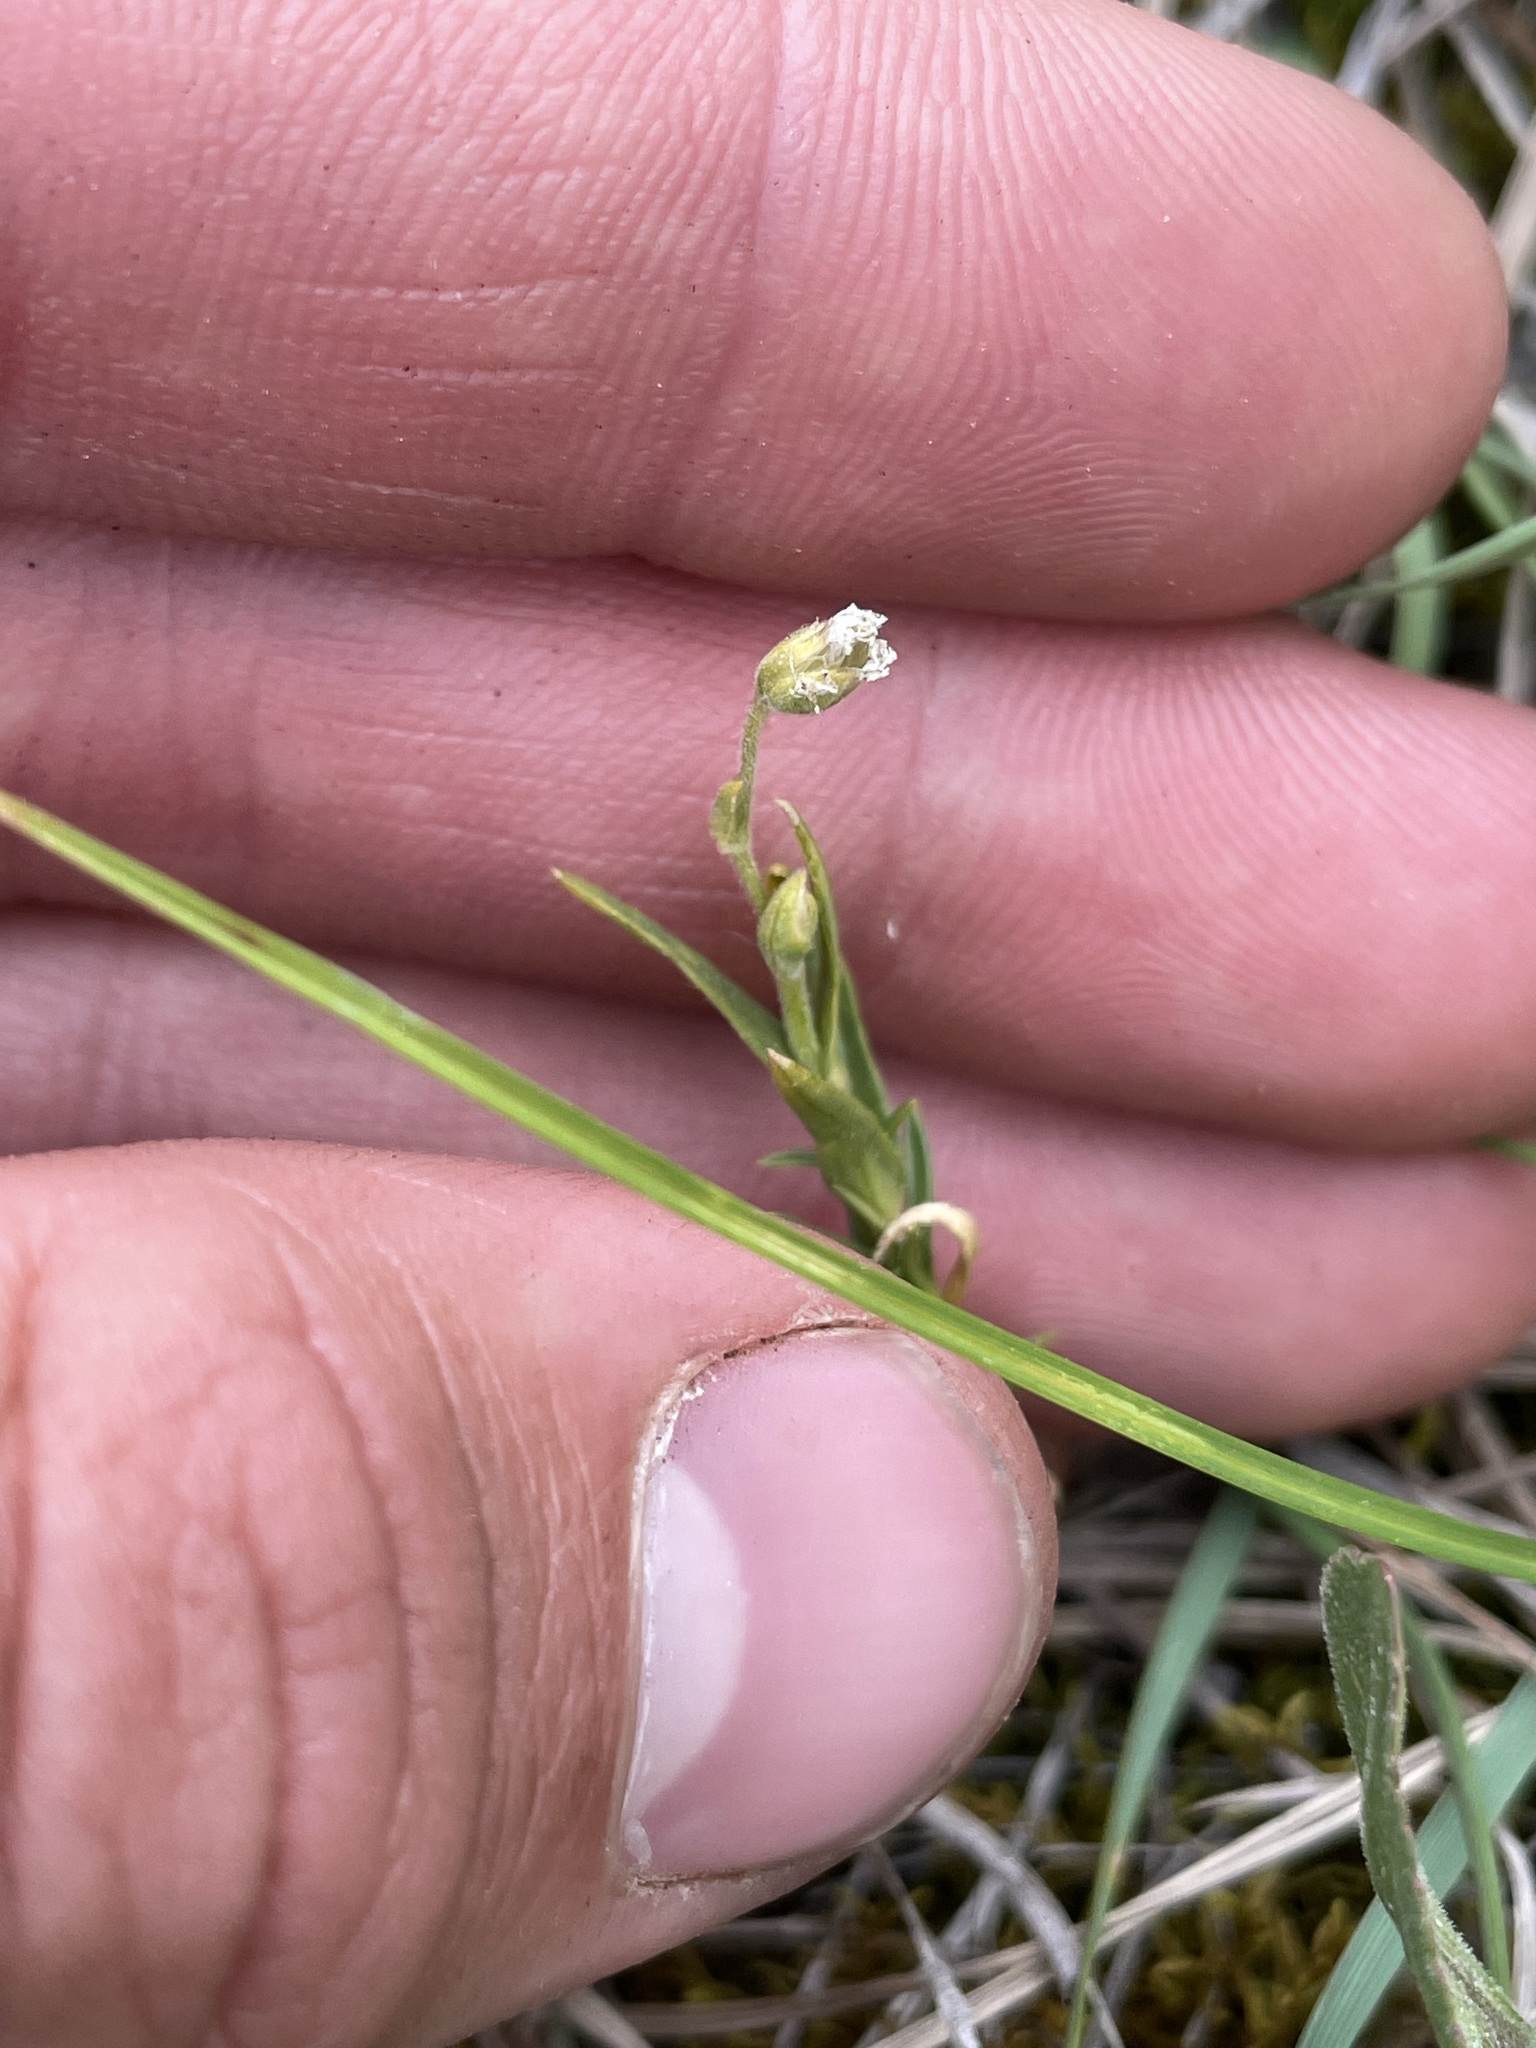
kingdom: Plantae
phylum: Tracheophyta
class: Magnoliopsida
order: Caryophyllales
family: Caryophyllaceae
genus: Cerastium
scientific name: Cerastium arvense
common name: Field mouse-ear
